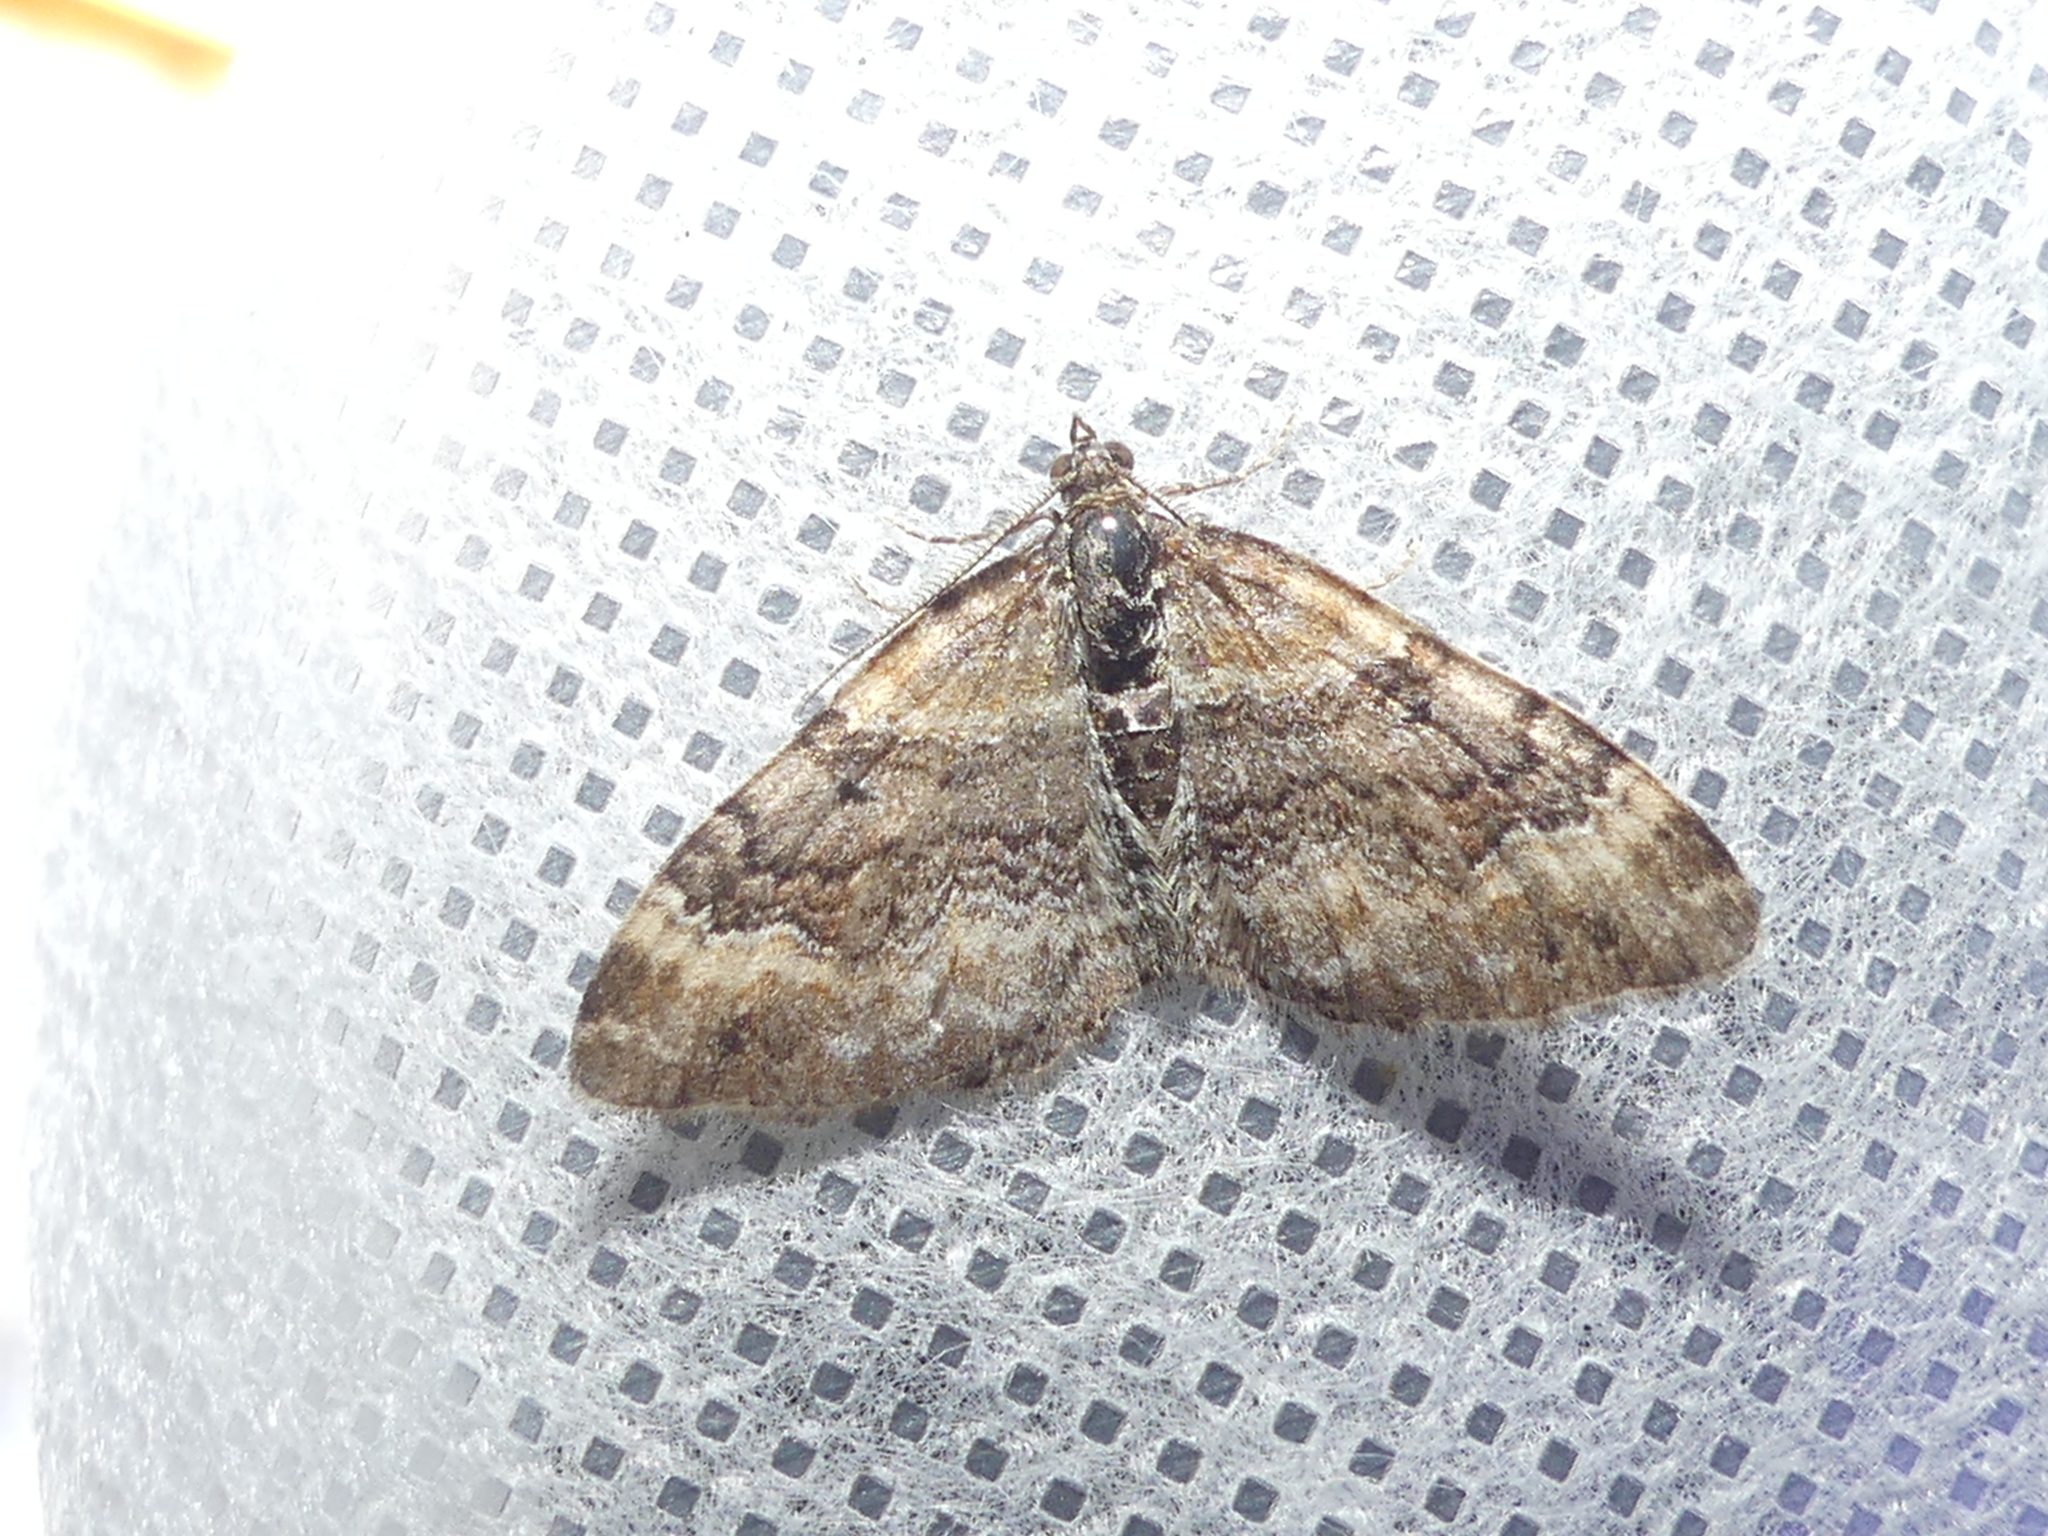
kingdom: Animalia
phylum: Arthropoda
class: Insecta
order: Lepidoptera
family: Geometridae
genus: Xanthorhoe
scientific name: Xanthorhoe spadicearia
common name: Red twin-spot carpet
